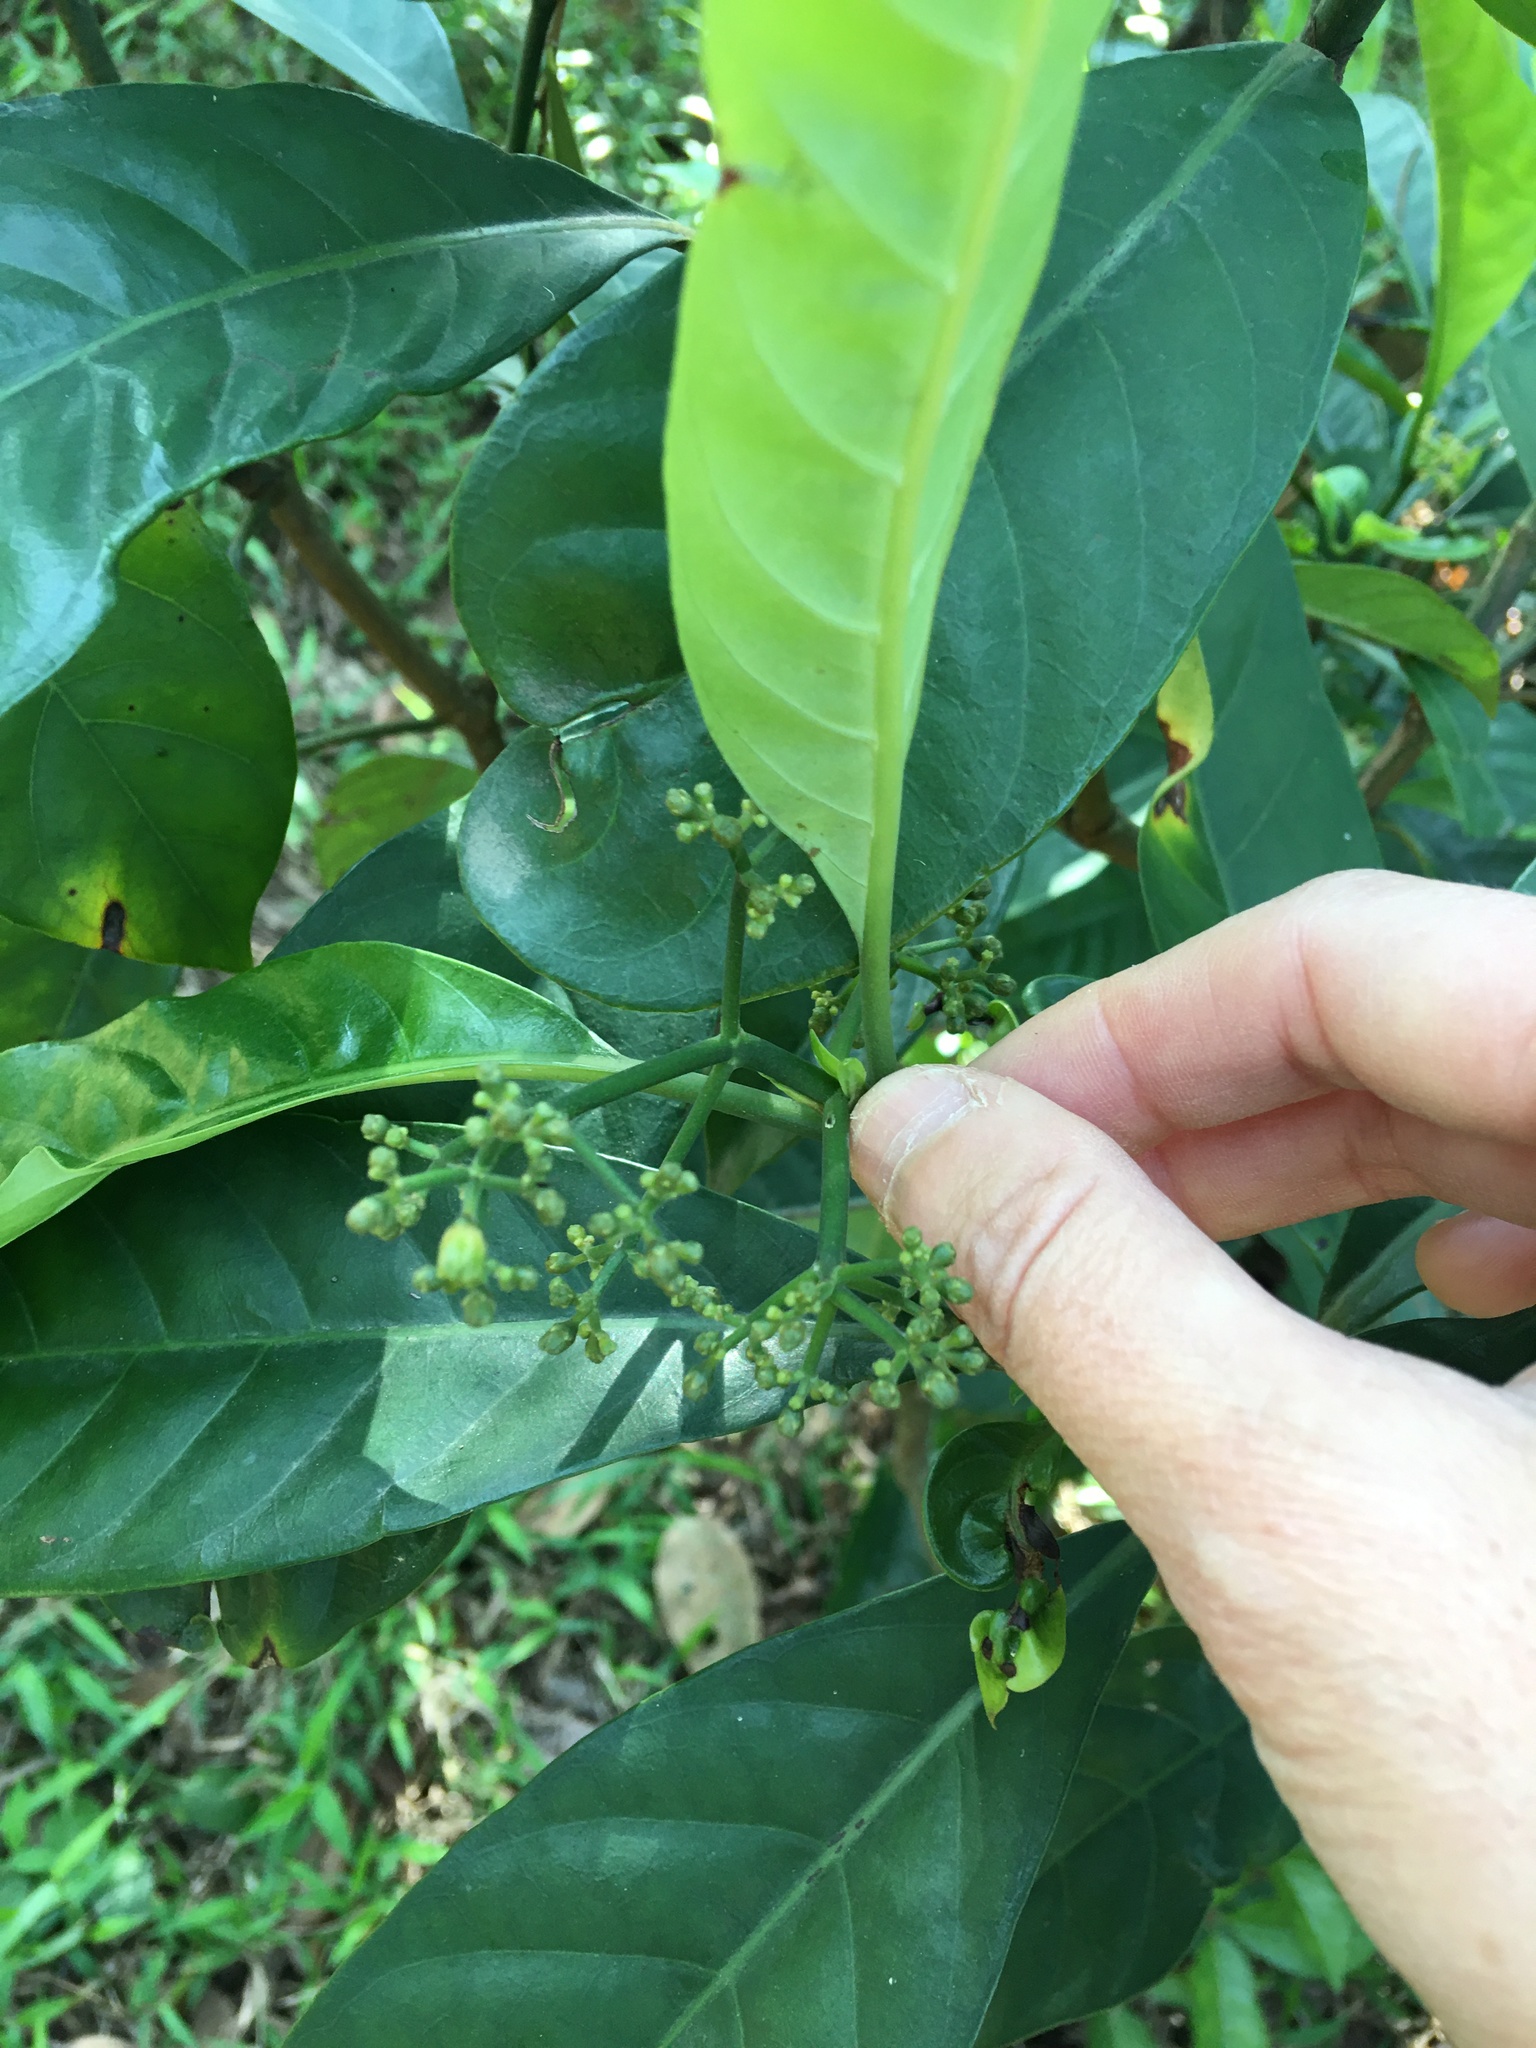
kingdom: Plantae
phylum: Tracheophyta
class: Magnoliopsida
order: Gentianales
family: Rubiaceae
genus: Psychotria
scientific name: Psychotria asiatica
